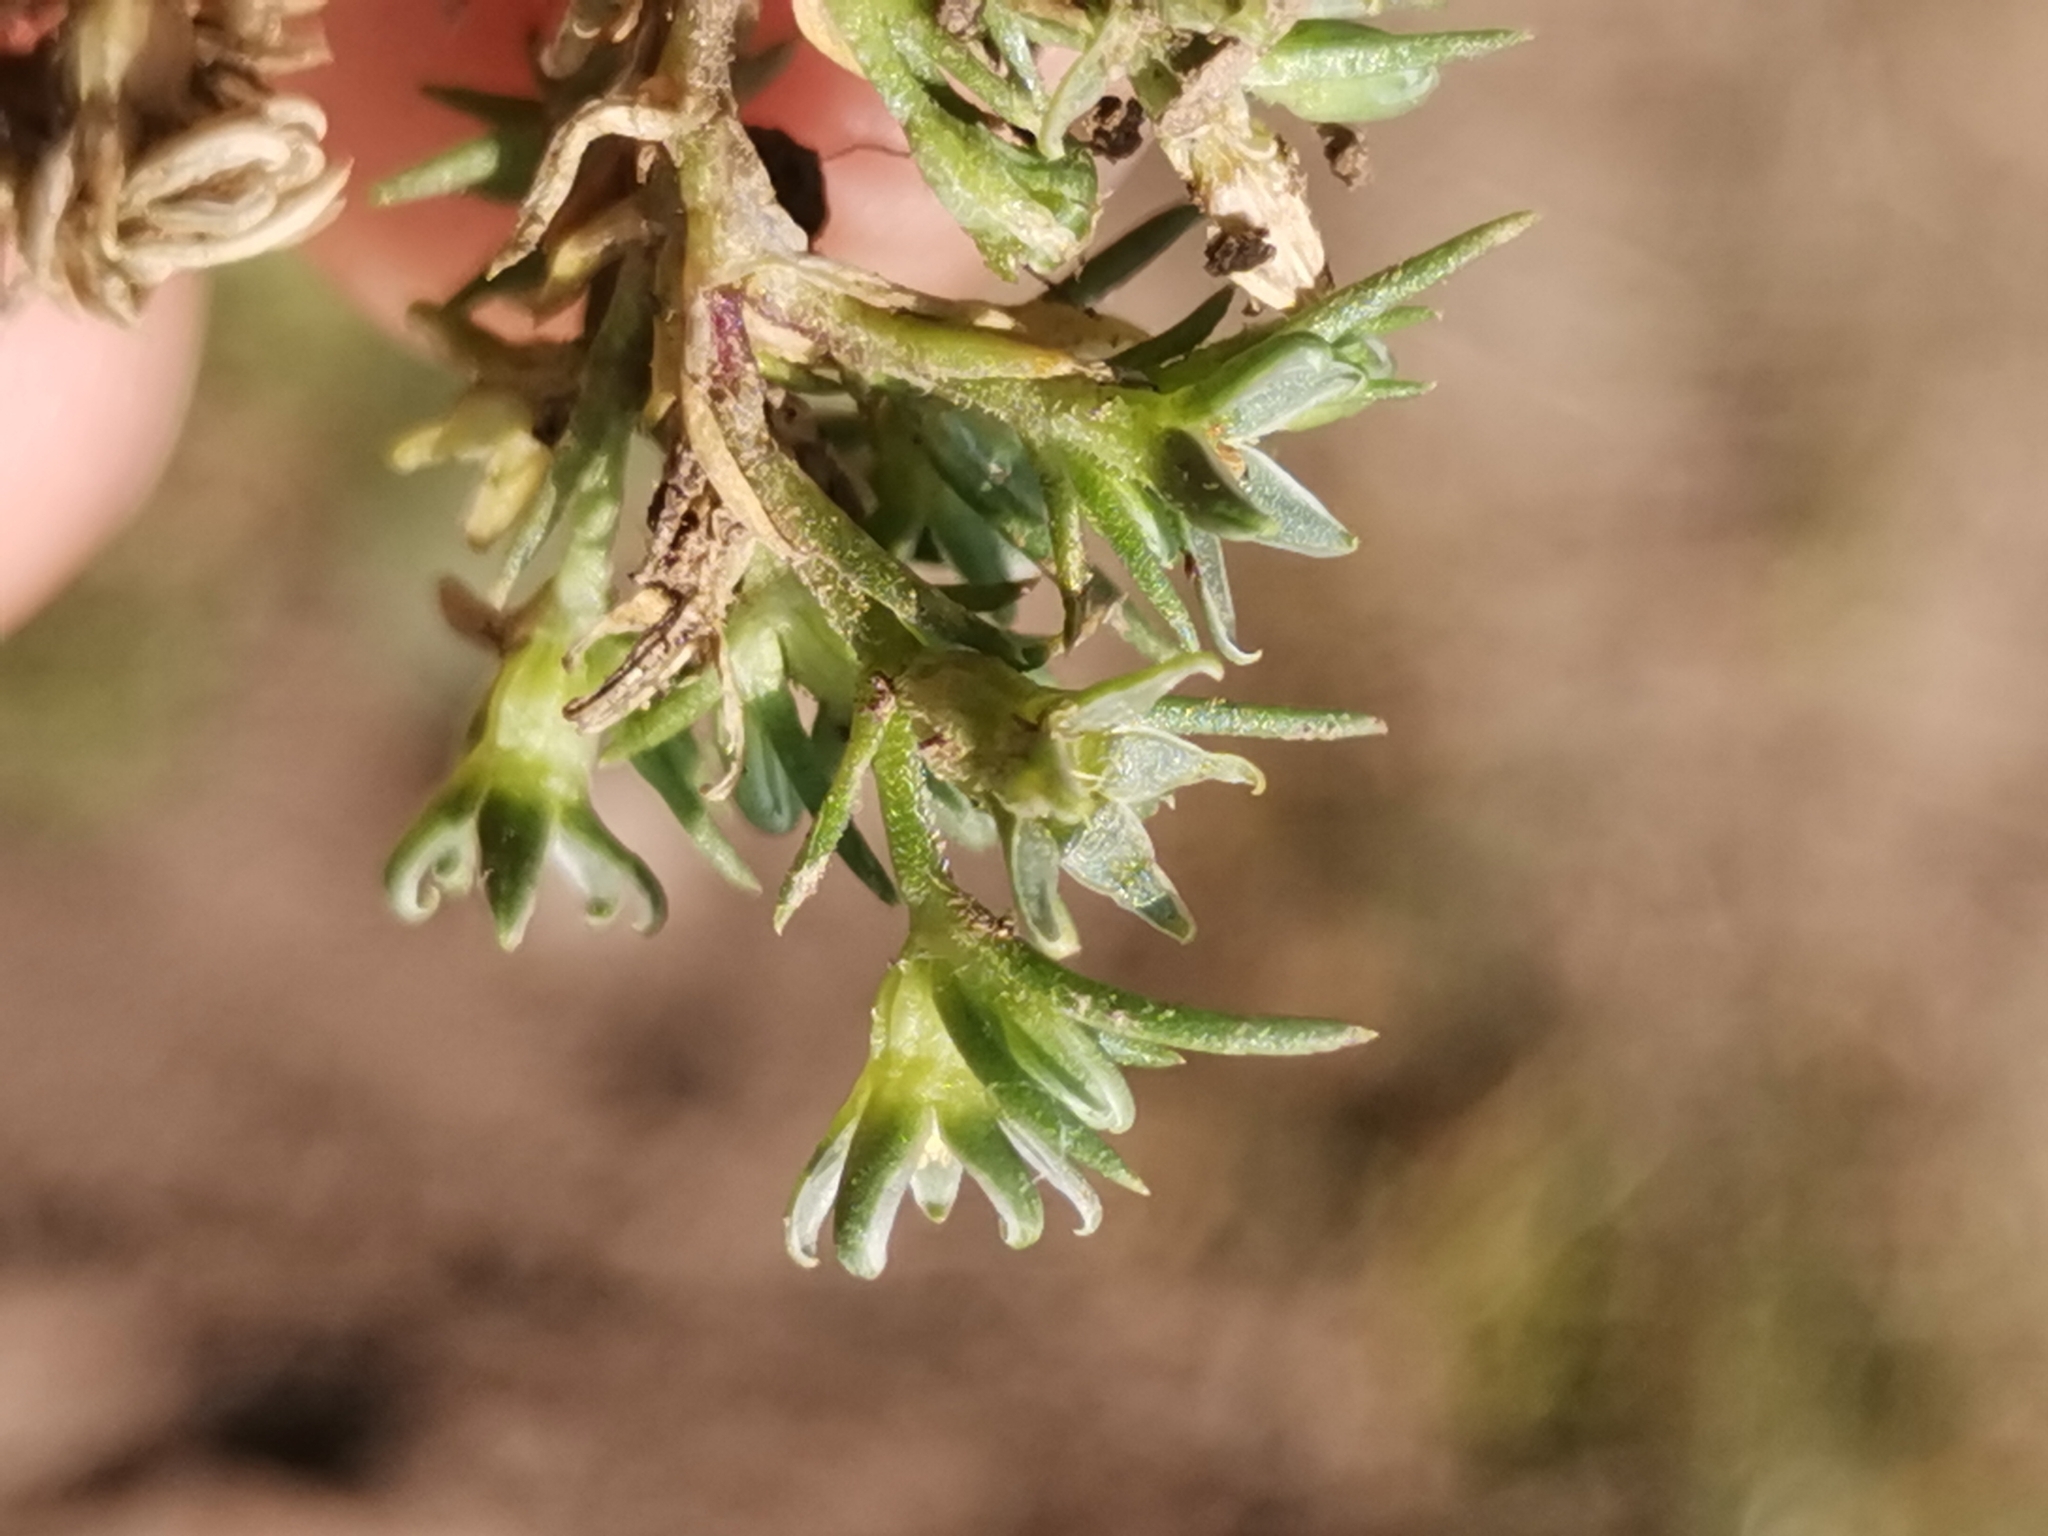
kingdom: Plantae
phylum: Tracheophyta
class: Magnoliopsida
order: Caryophyllales
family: Caryophyllaceae
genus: Scleranthus
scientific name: Scleranthus annuus
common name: Annual knawel
